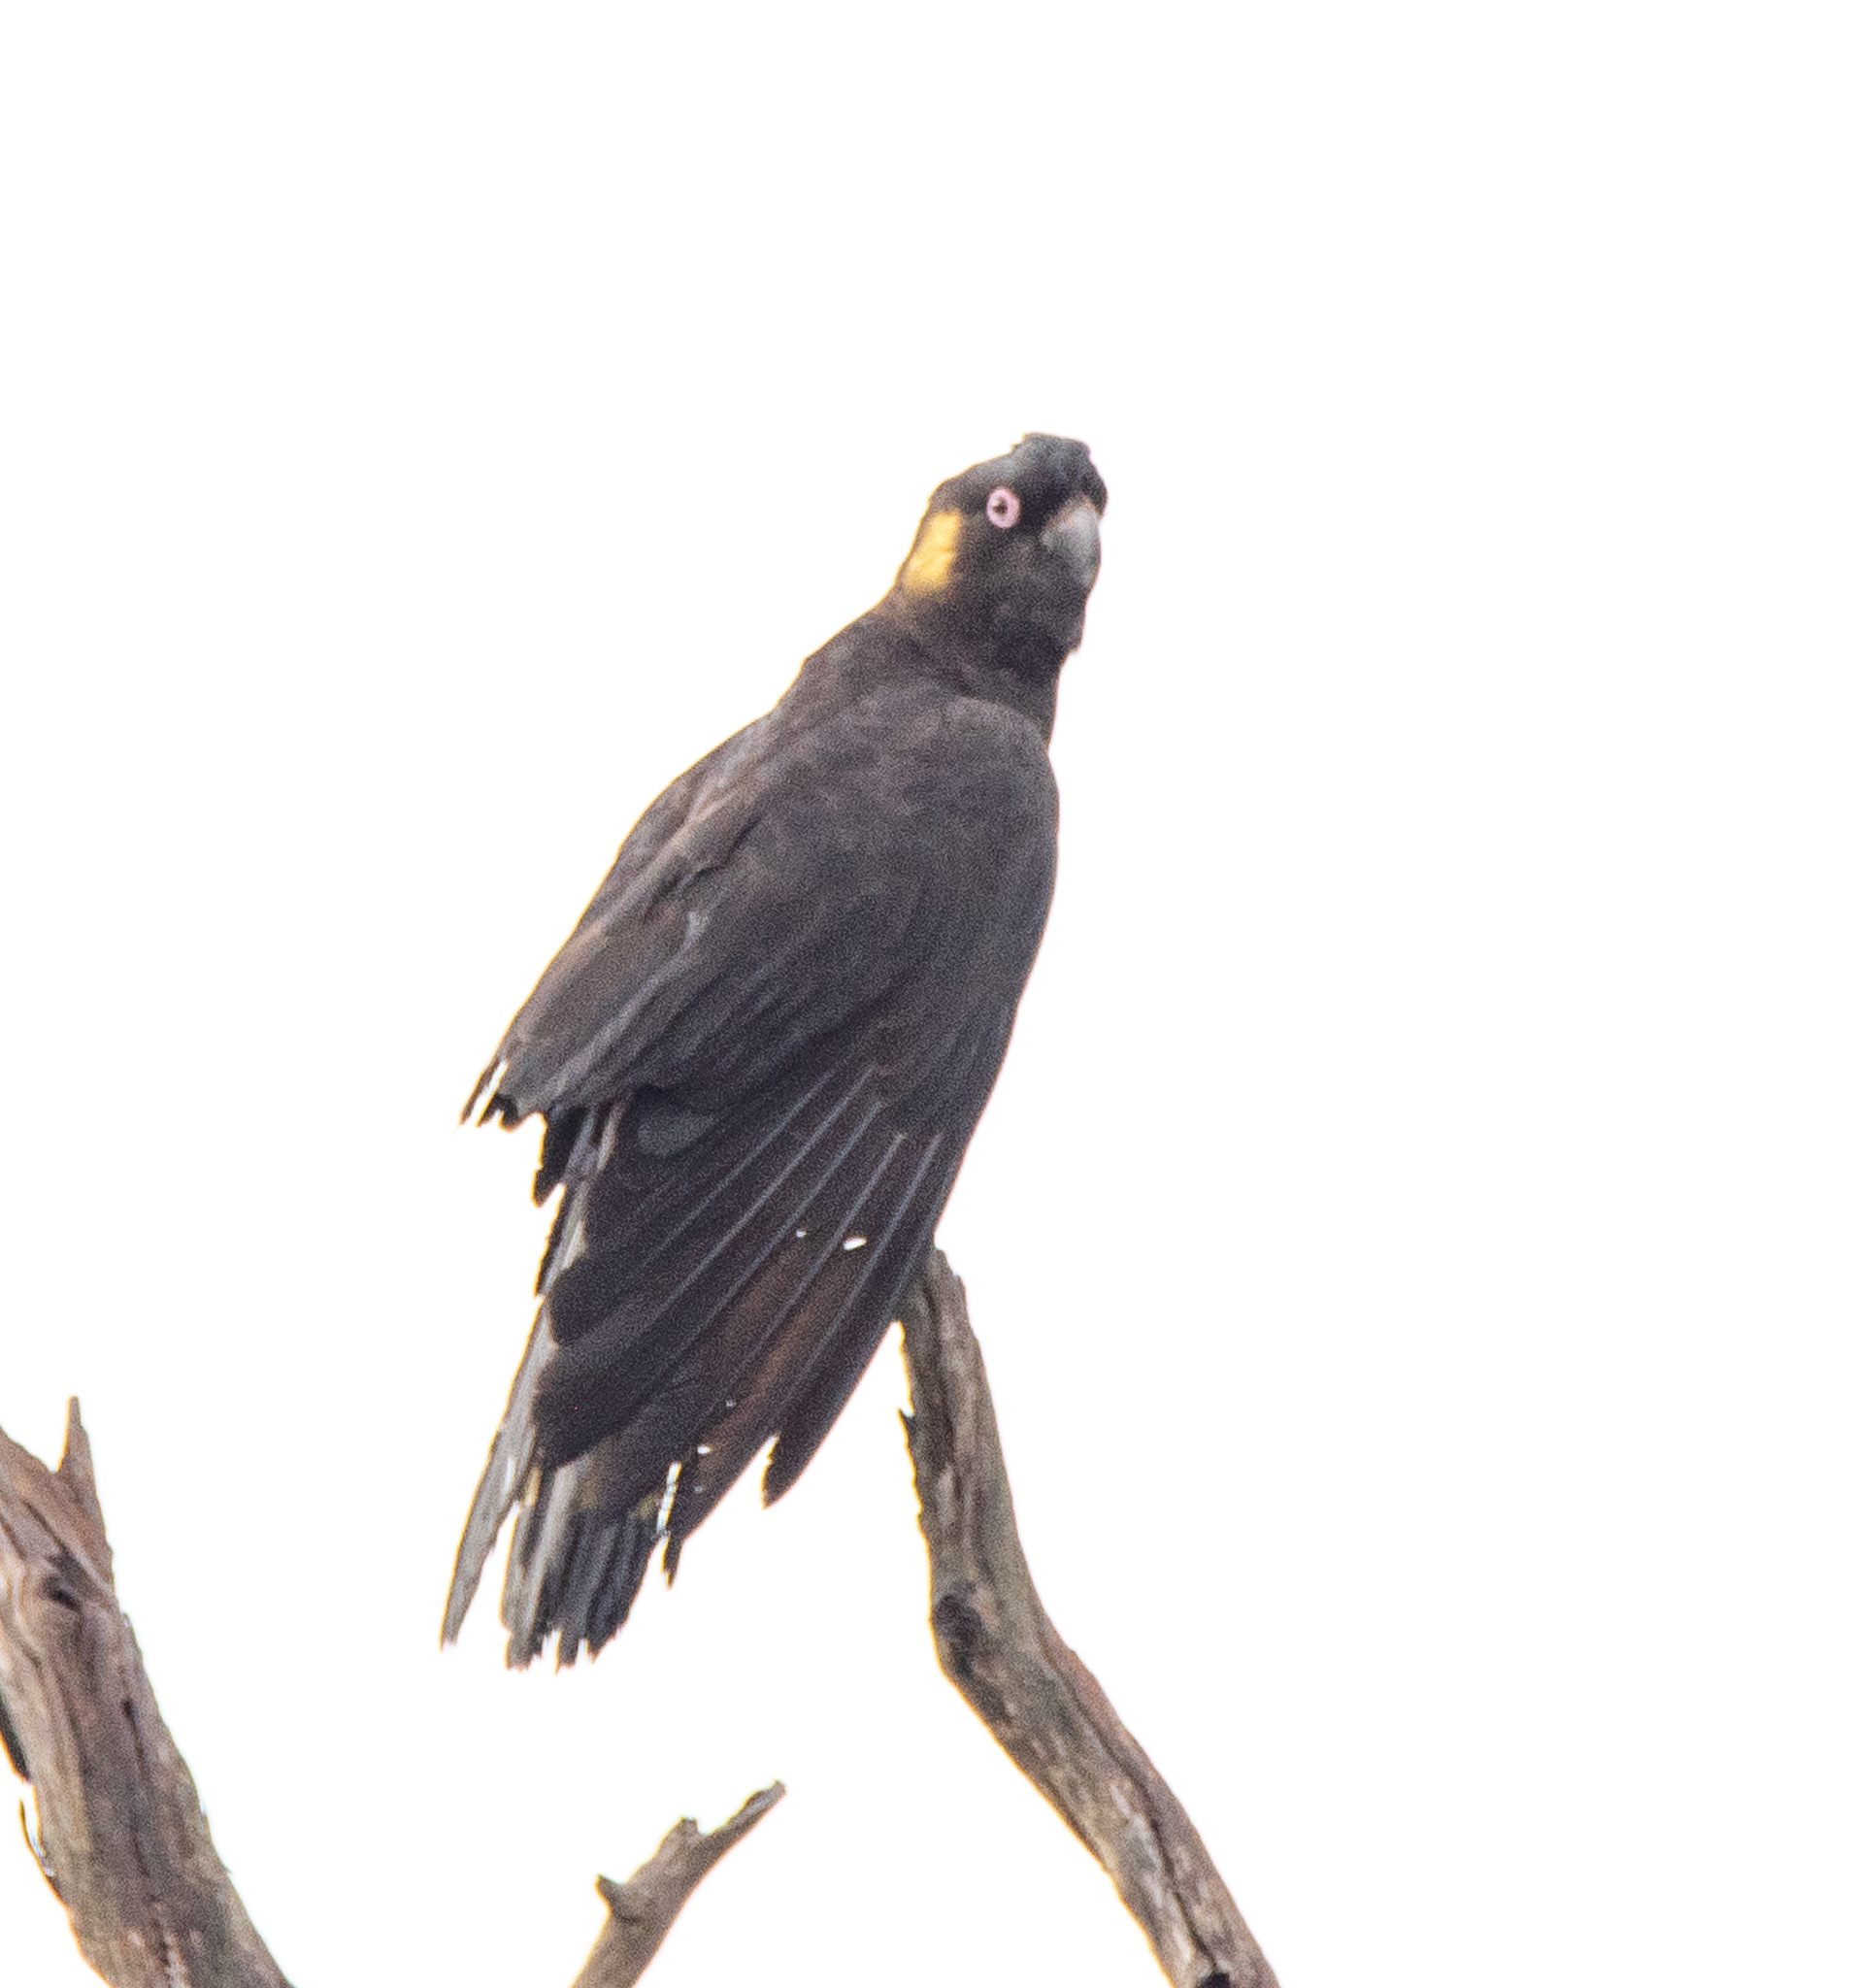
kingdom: Animalia
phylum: Chordata
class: Aves
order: Psittaciformes
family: Cacatuidae
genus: Zanda
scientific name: Zanda funerea
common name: Yellow-tailed black-cockatoo
